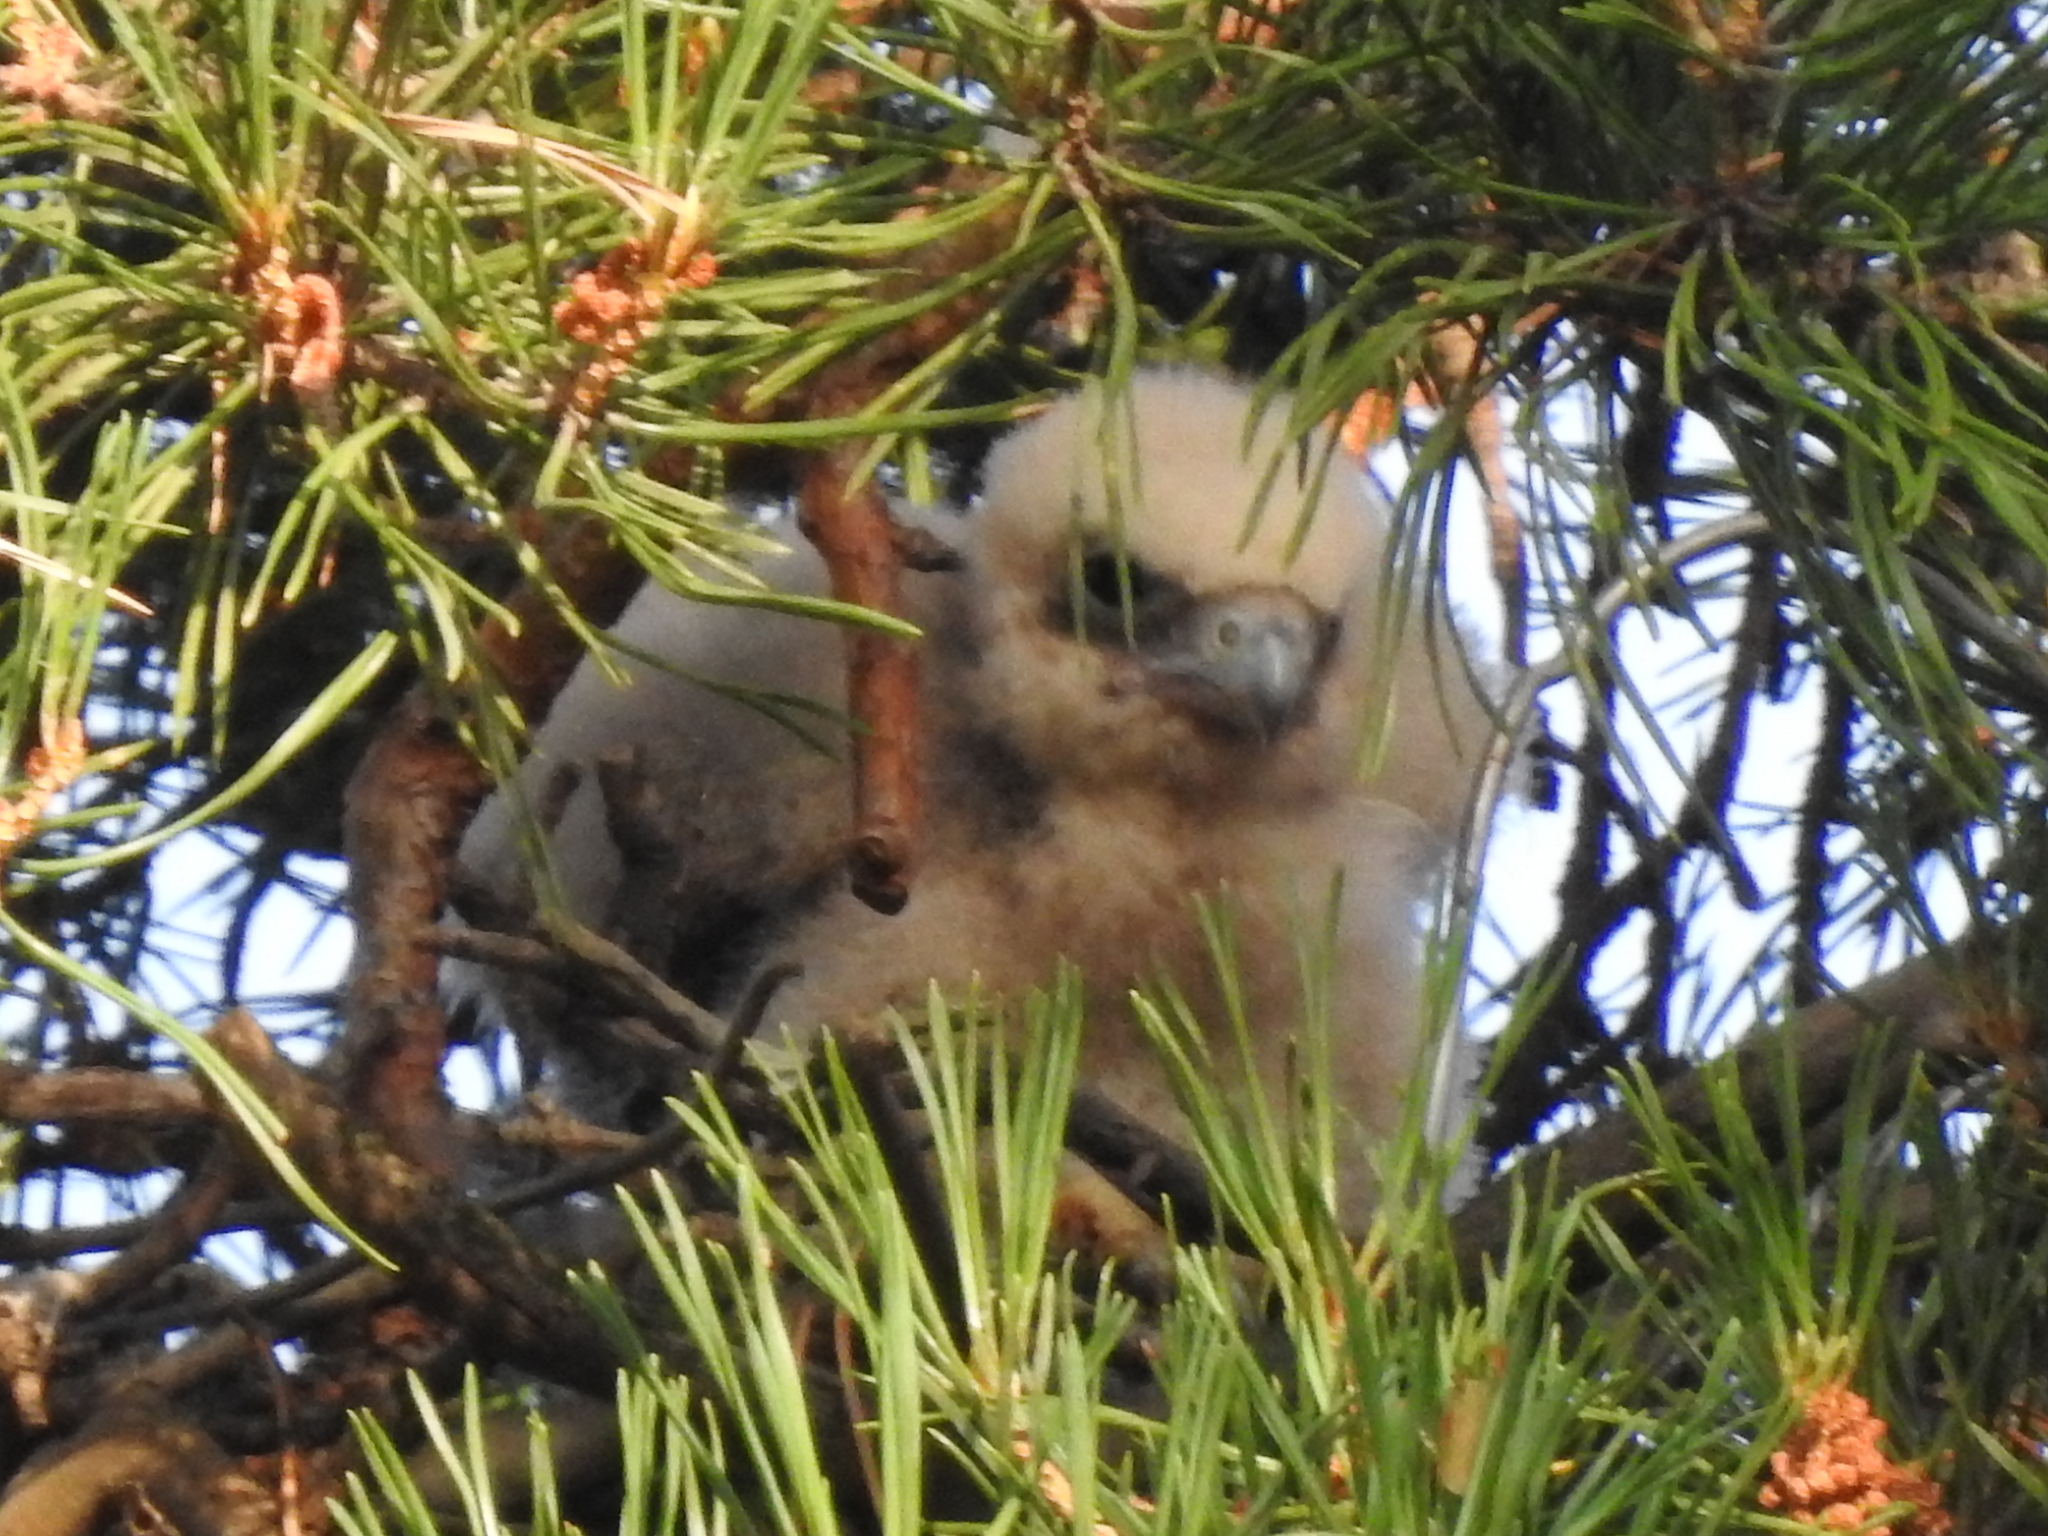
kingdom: Animalia
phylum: Chordata
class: Aves
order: Falconiformes
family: Falconidae
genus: Falco
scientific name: Falco subbuteo
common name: Eurasian hobby
